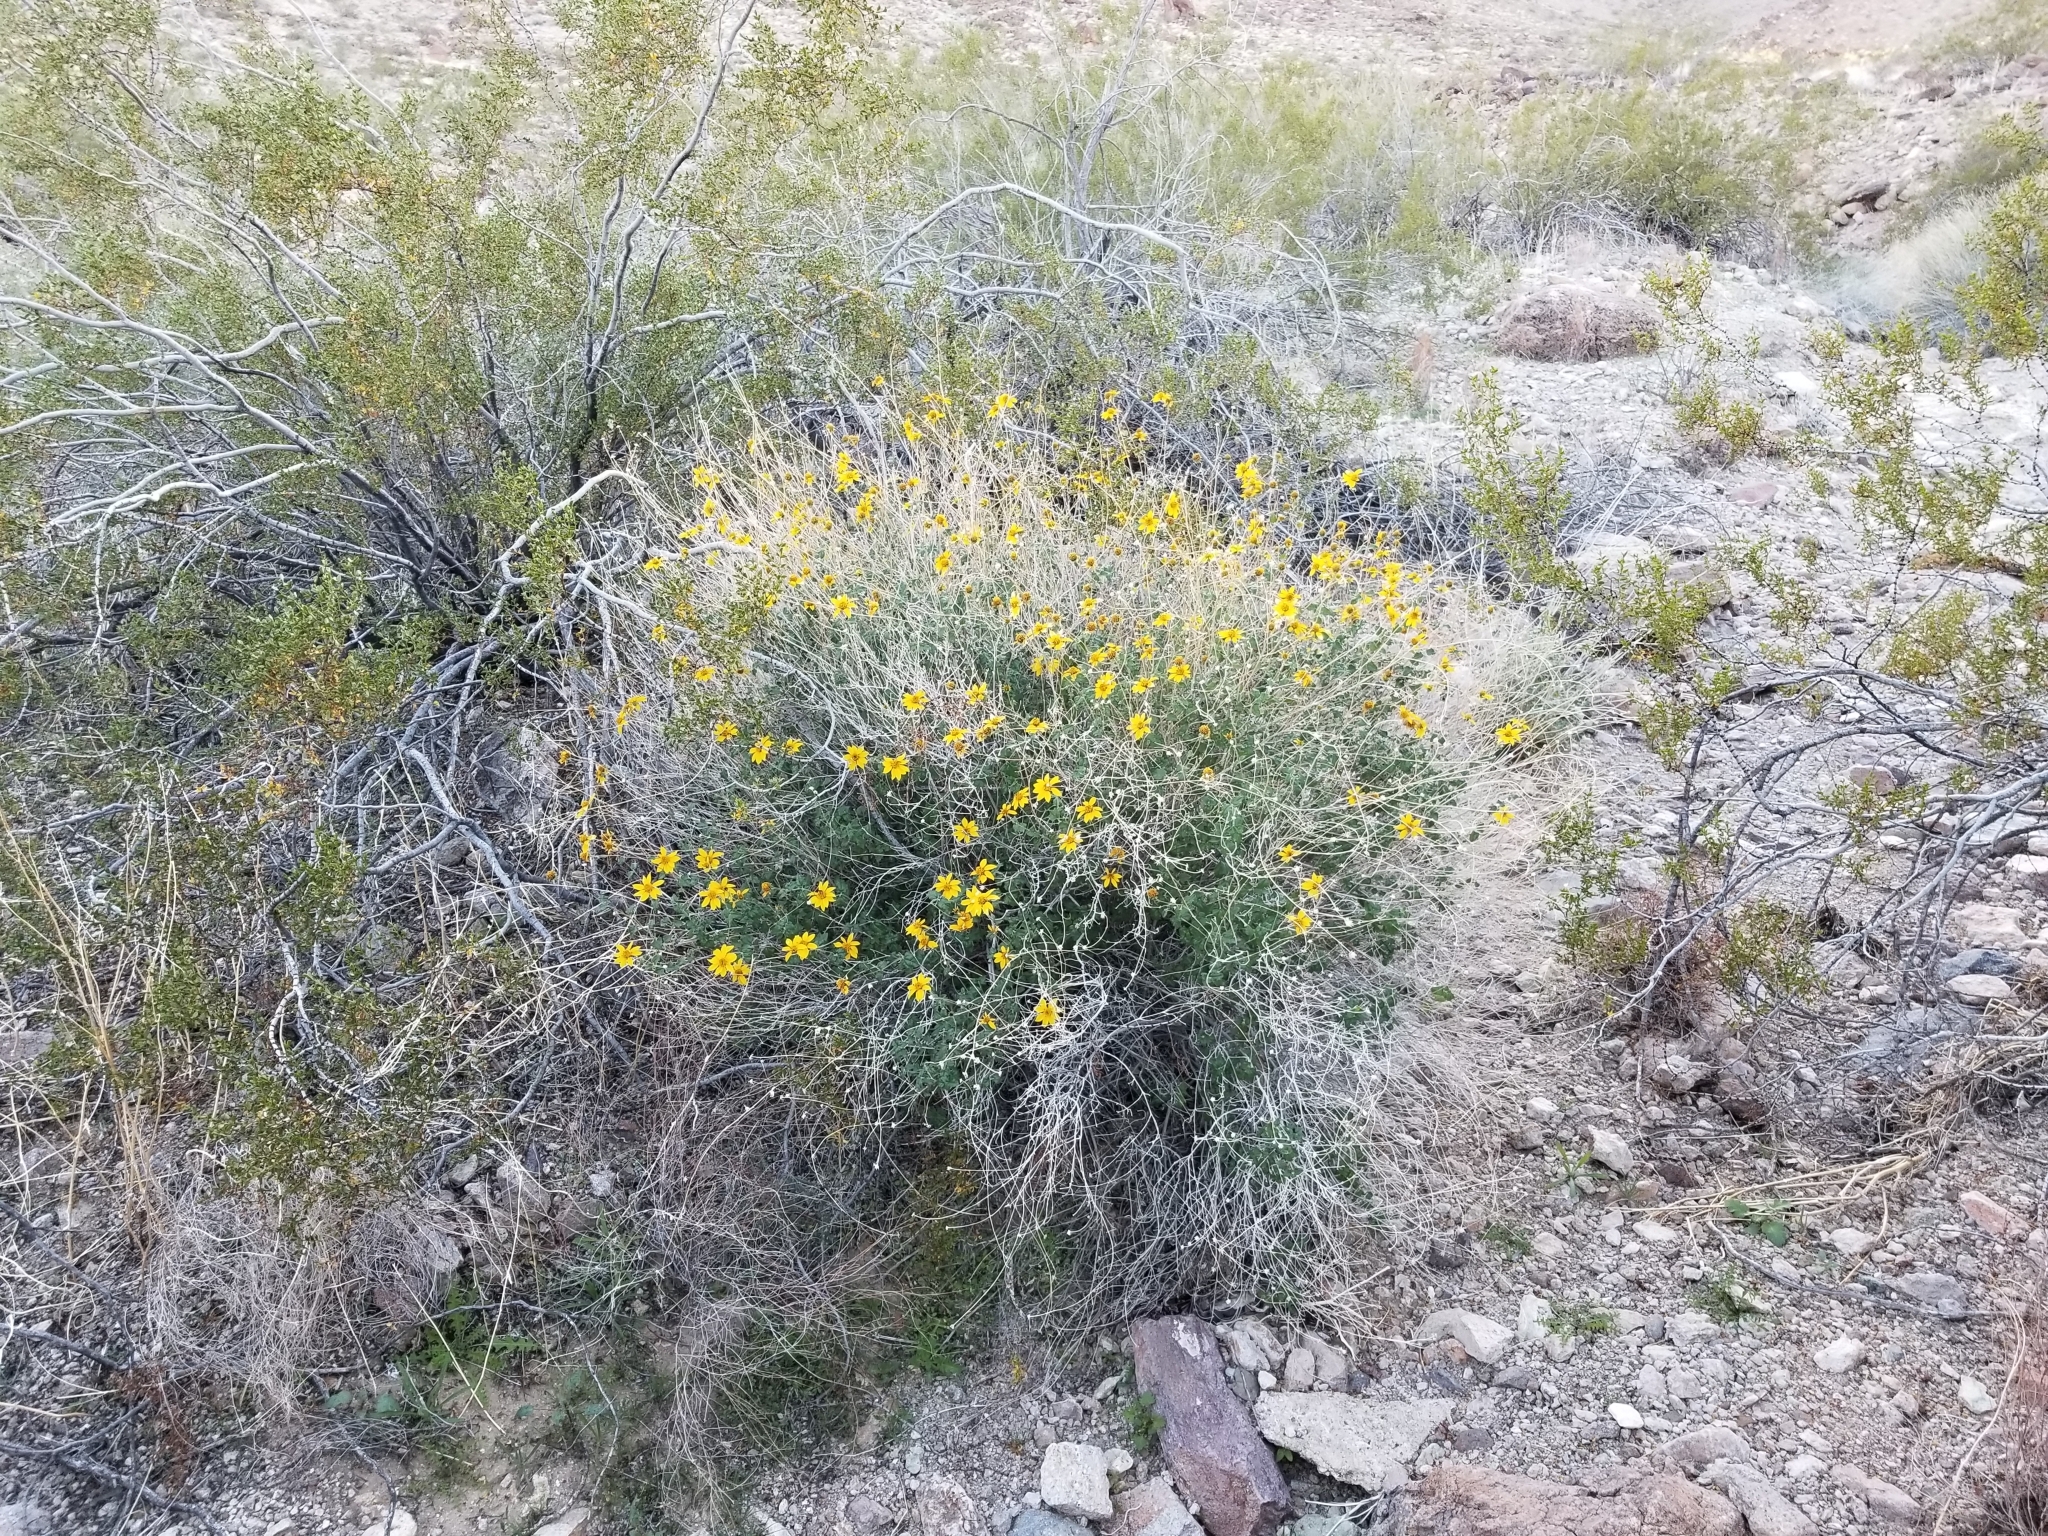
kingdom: Plantae
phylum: Tracheophyta
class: Magnoliopsida
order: Asterales
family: Asteraceae
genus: Bahiopsis
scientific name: Bahiopsis parishii
